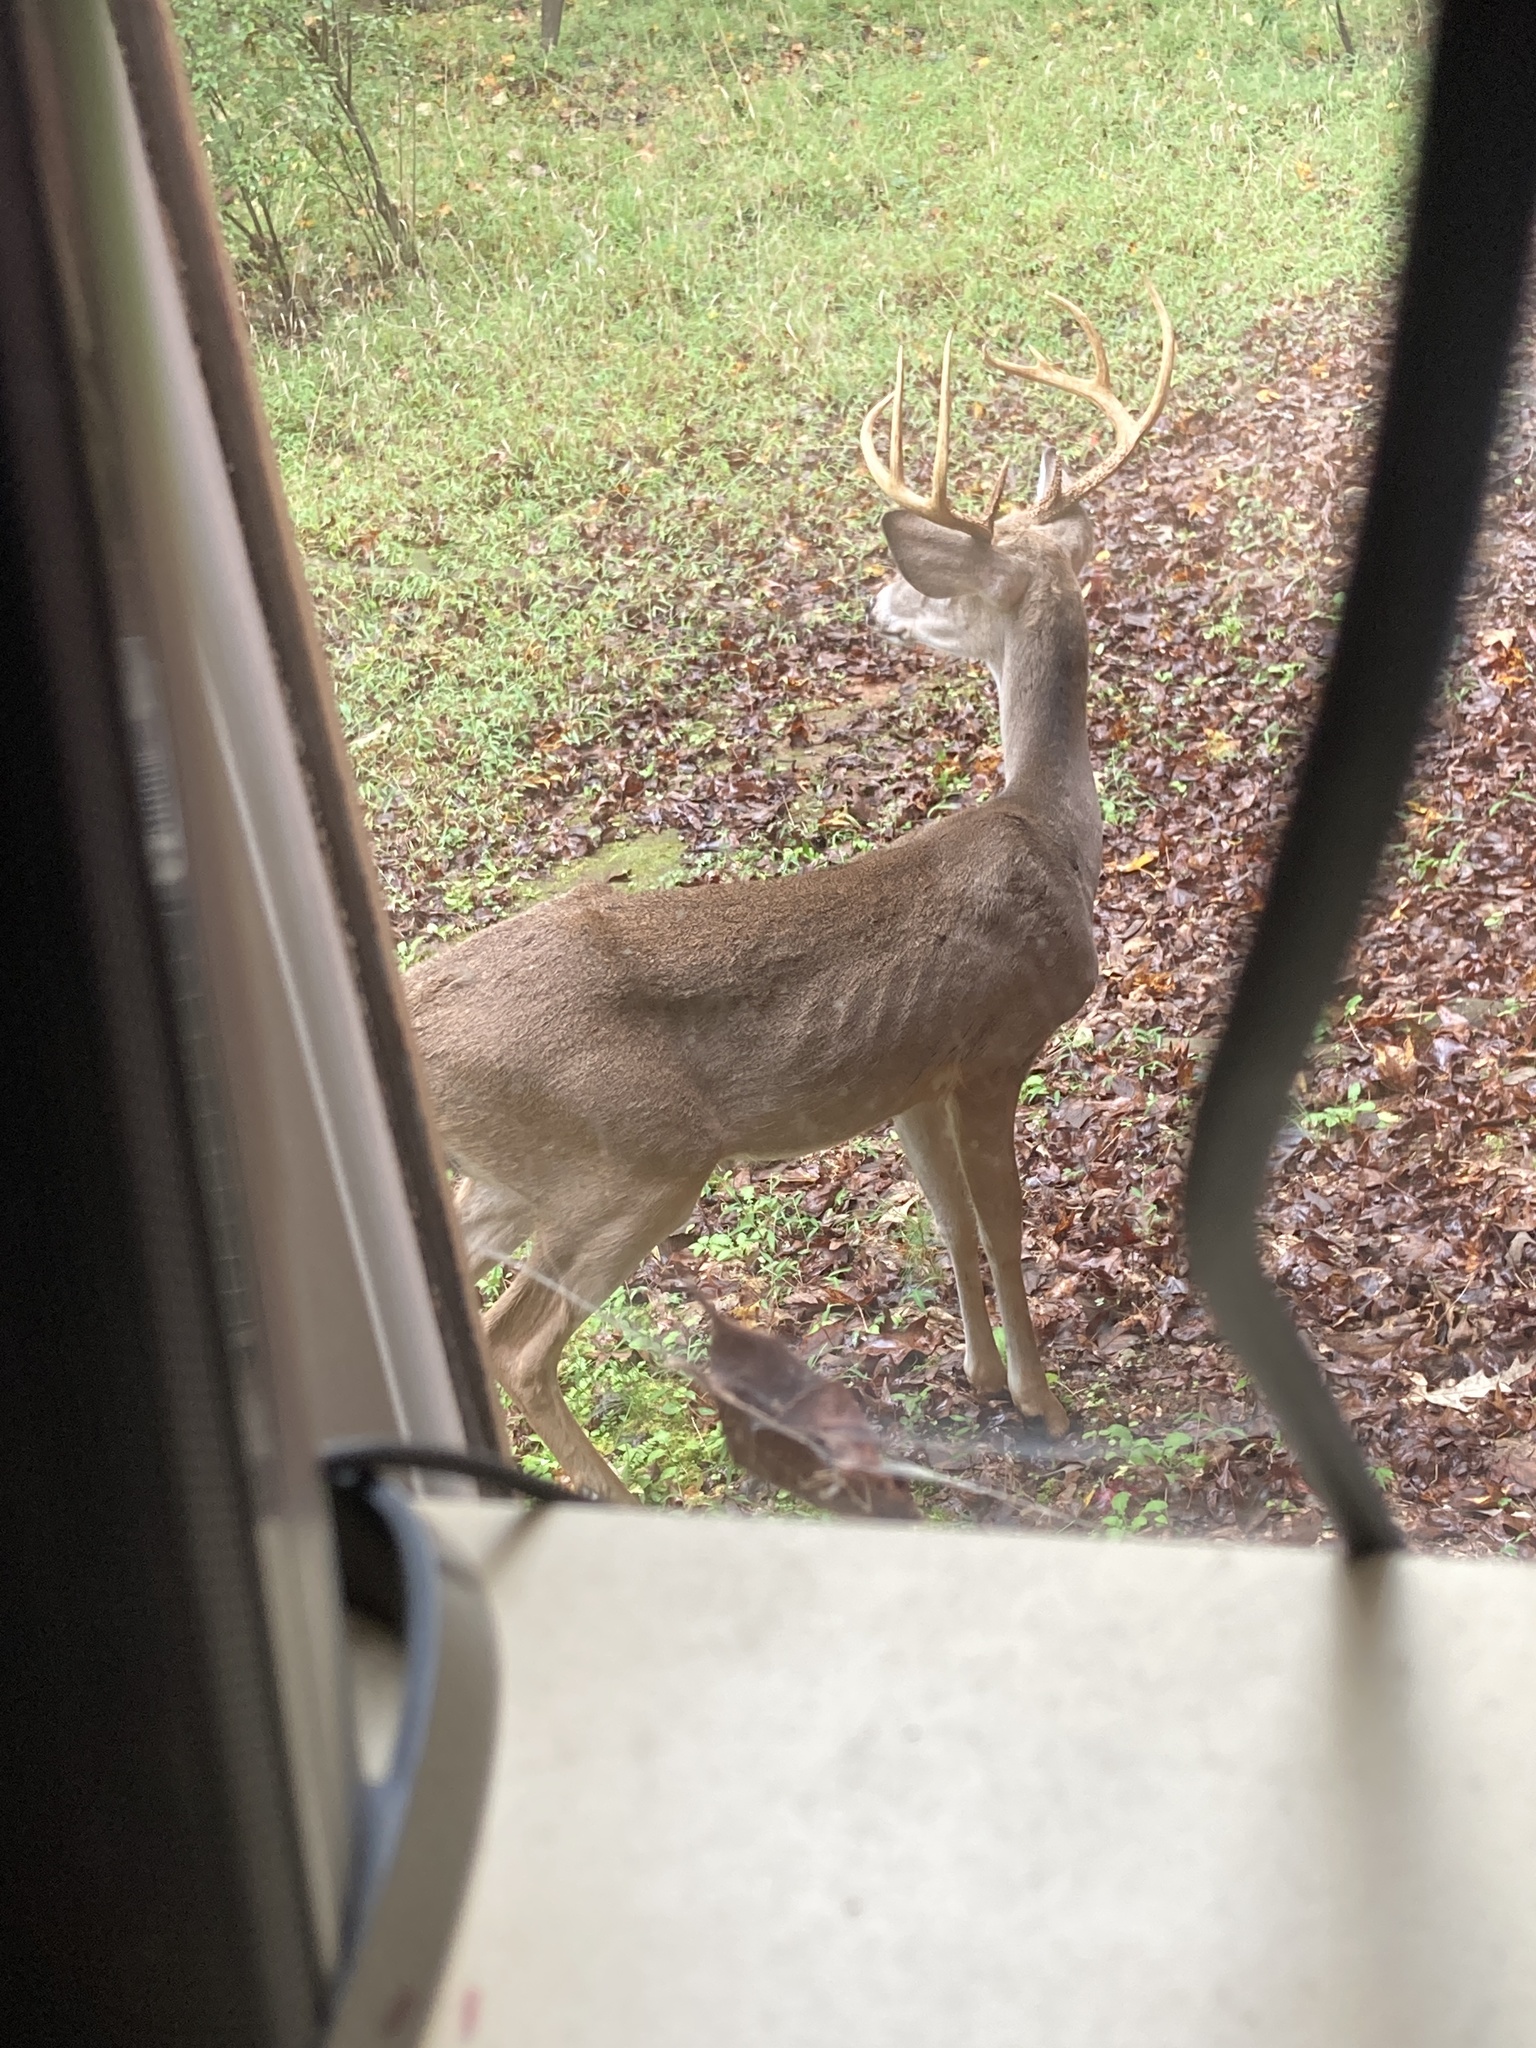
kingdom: Animalia
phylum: Chordata
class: Mammalia
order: Artiodactyla
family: Cervidae
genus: Odocoileus
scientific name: Odocoileus virginianus
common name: White-tailed deer
